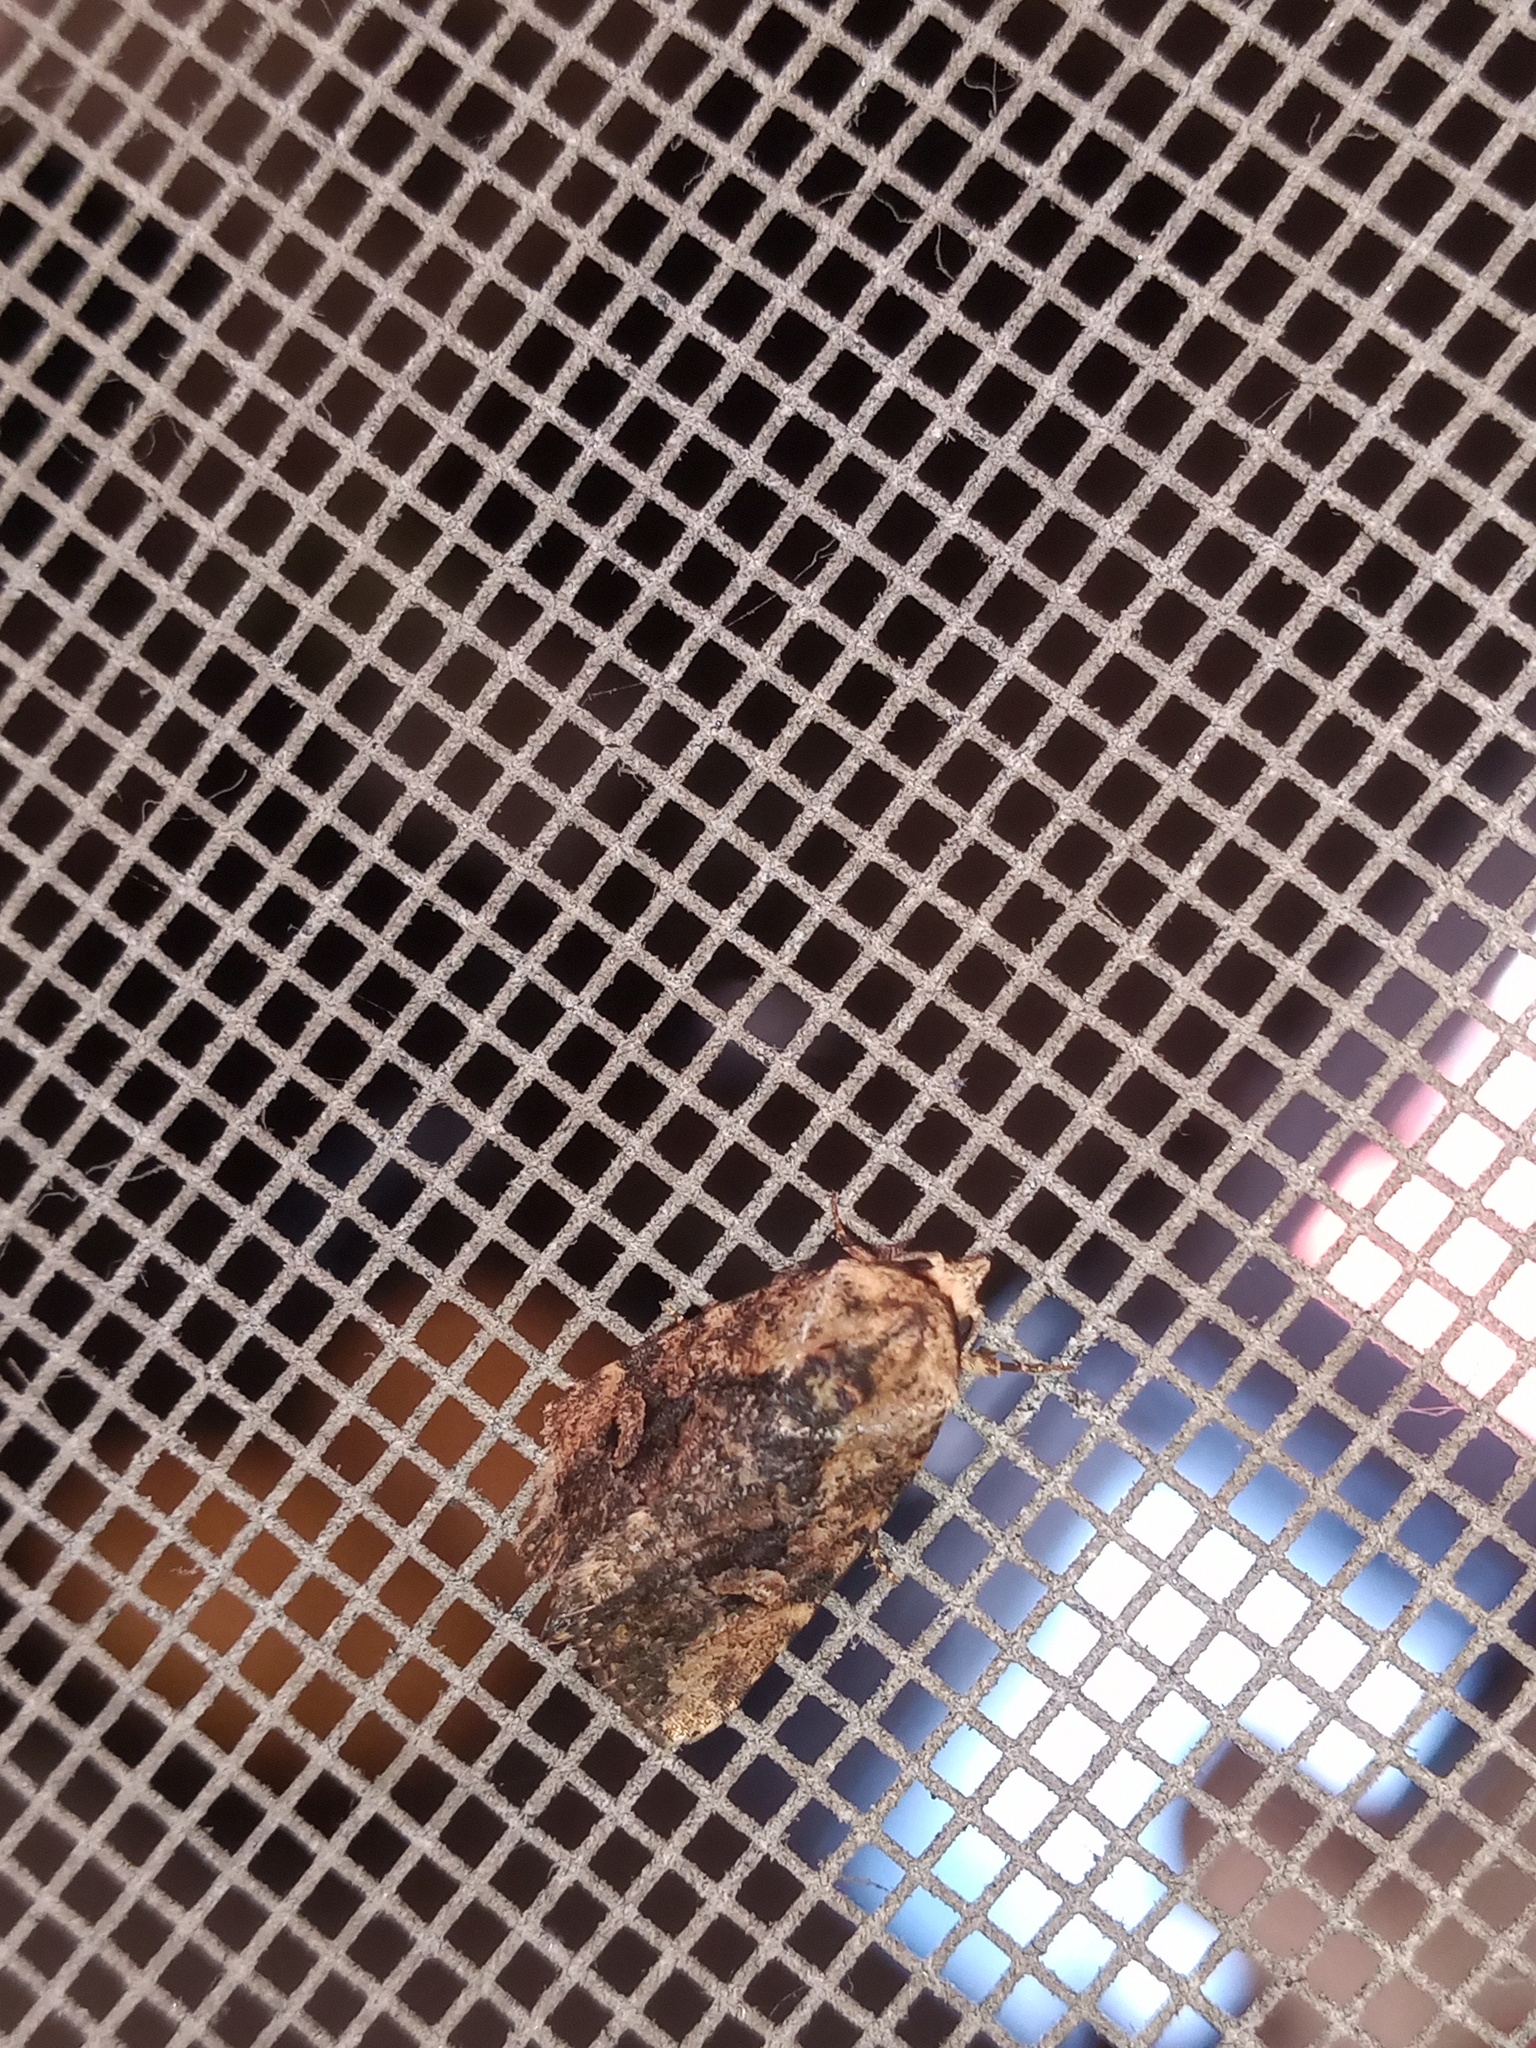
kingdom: Animalia
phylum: Arthropoda
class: Insecta
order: Lepidoptera
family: Noctuidae
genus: Elaphria
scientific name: Elaphria chalcedonia
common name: Chalcedony midget
